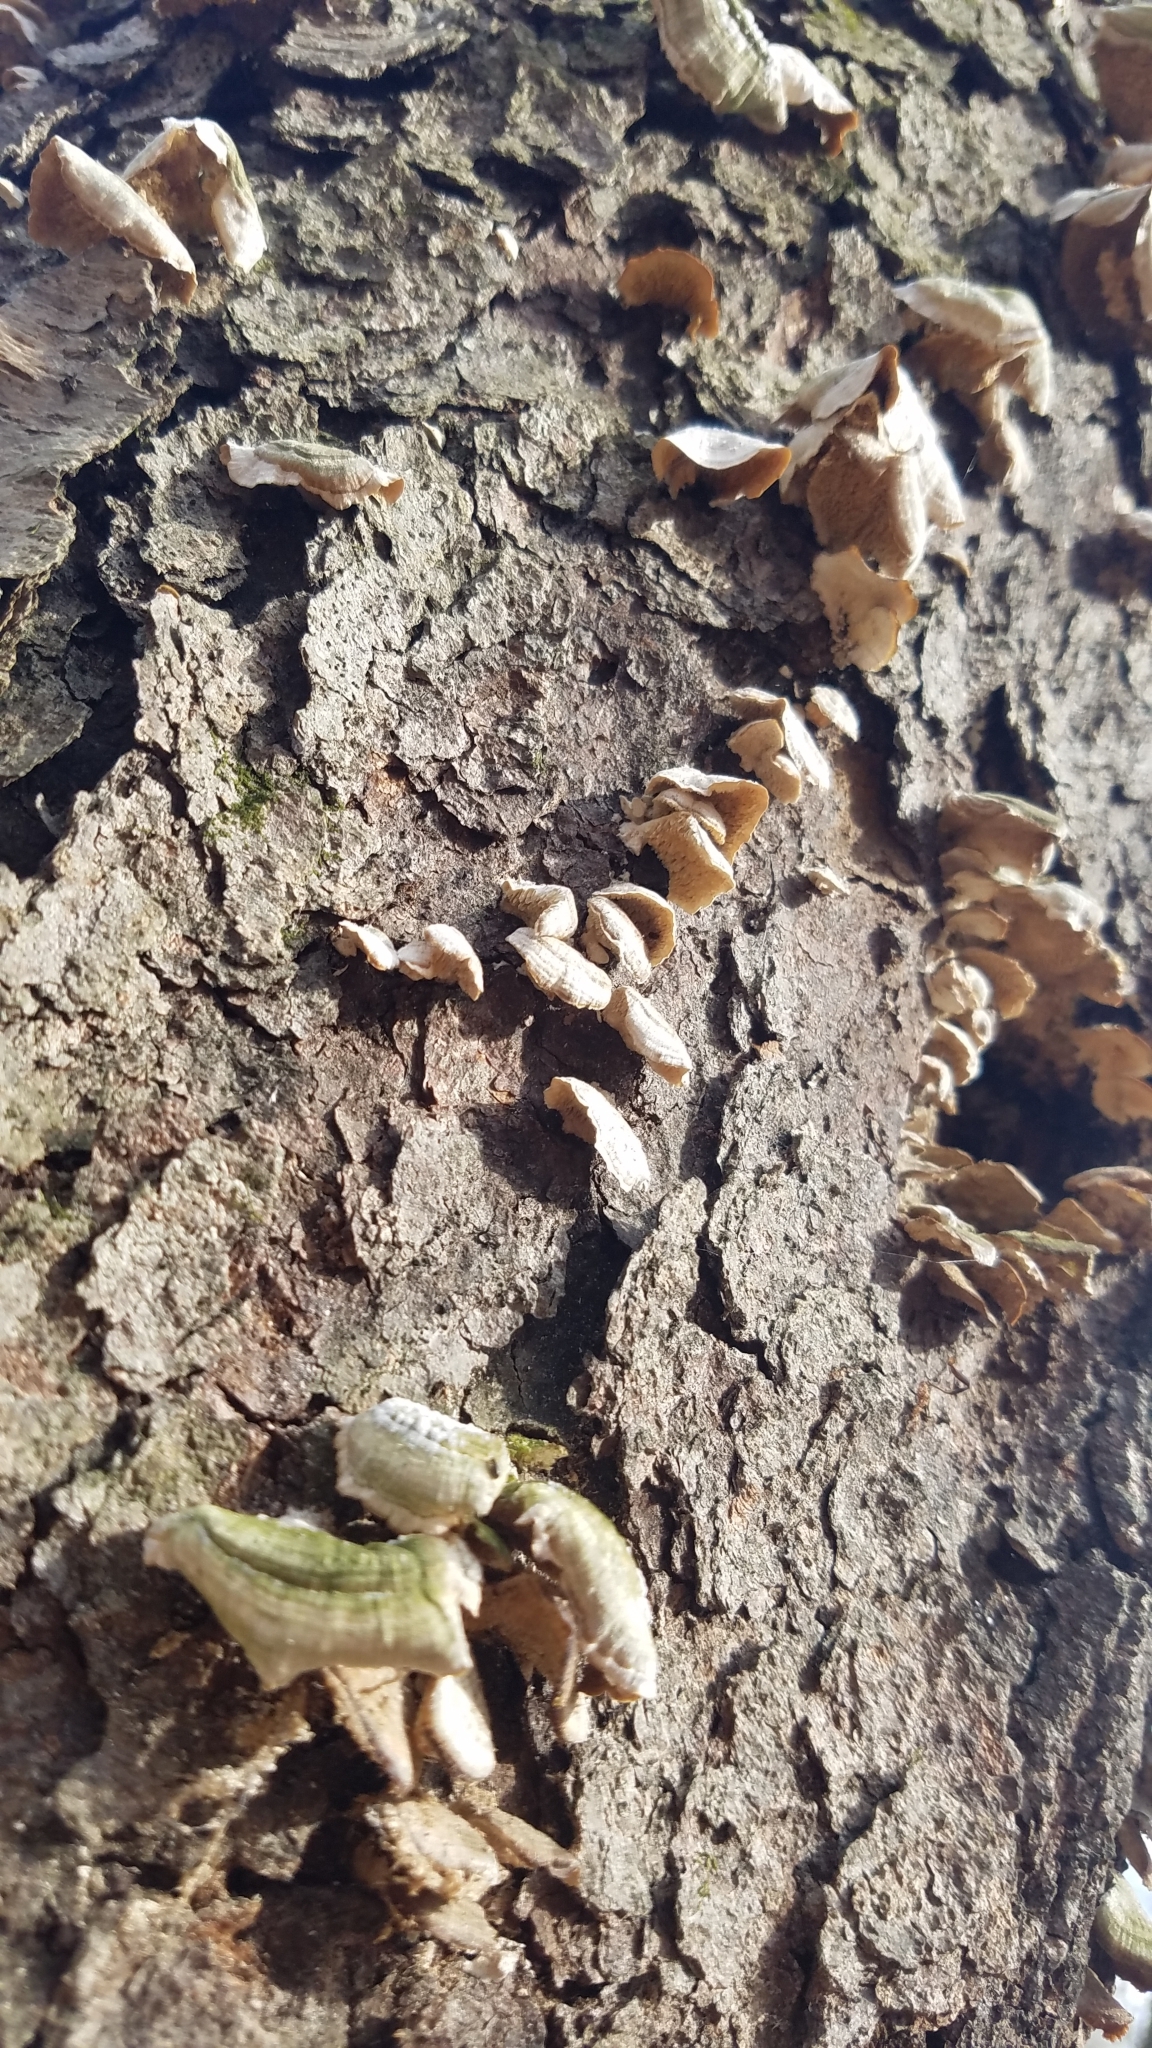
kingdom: Fungi
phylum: Basidiomycota
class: Agaricomycetes
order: Polyporales
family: Polyporaceae
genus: Poronidulus
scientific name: Poronidulus conchifer
